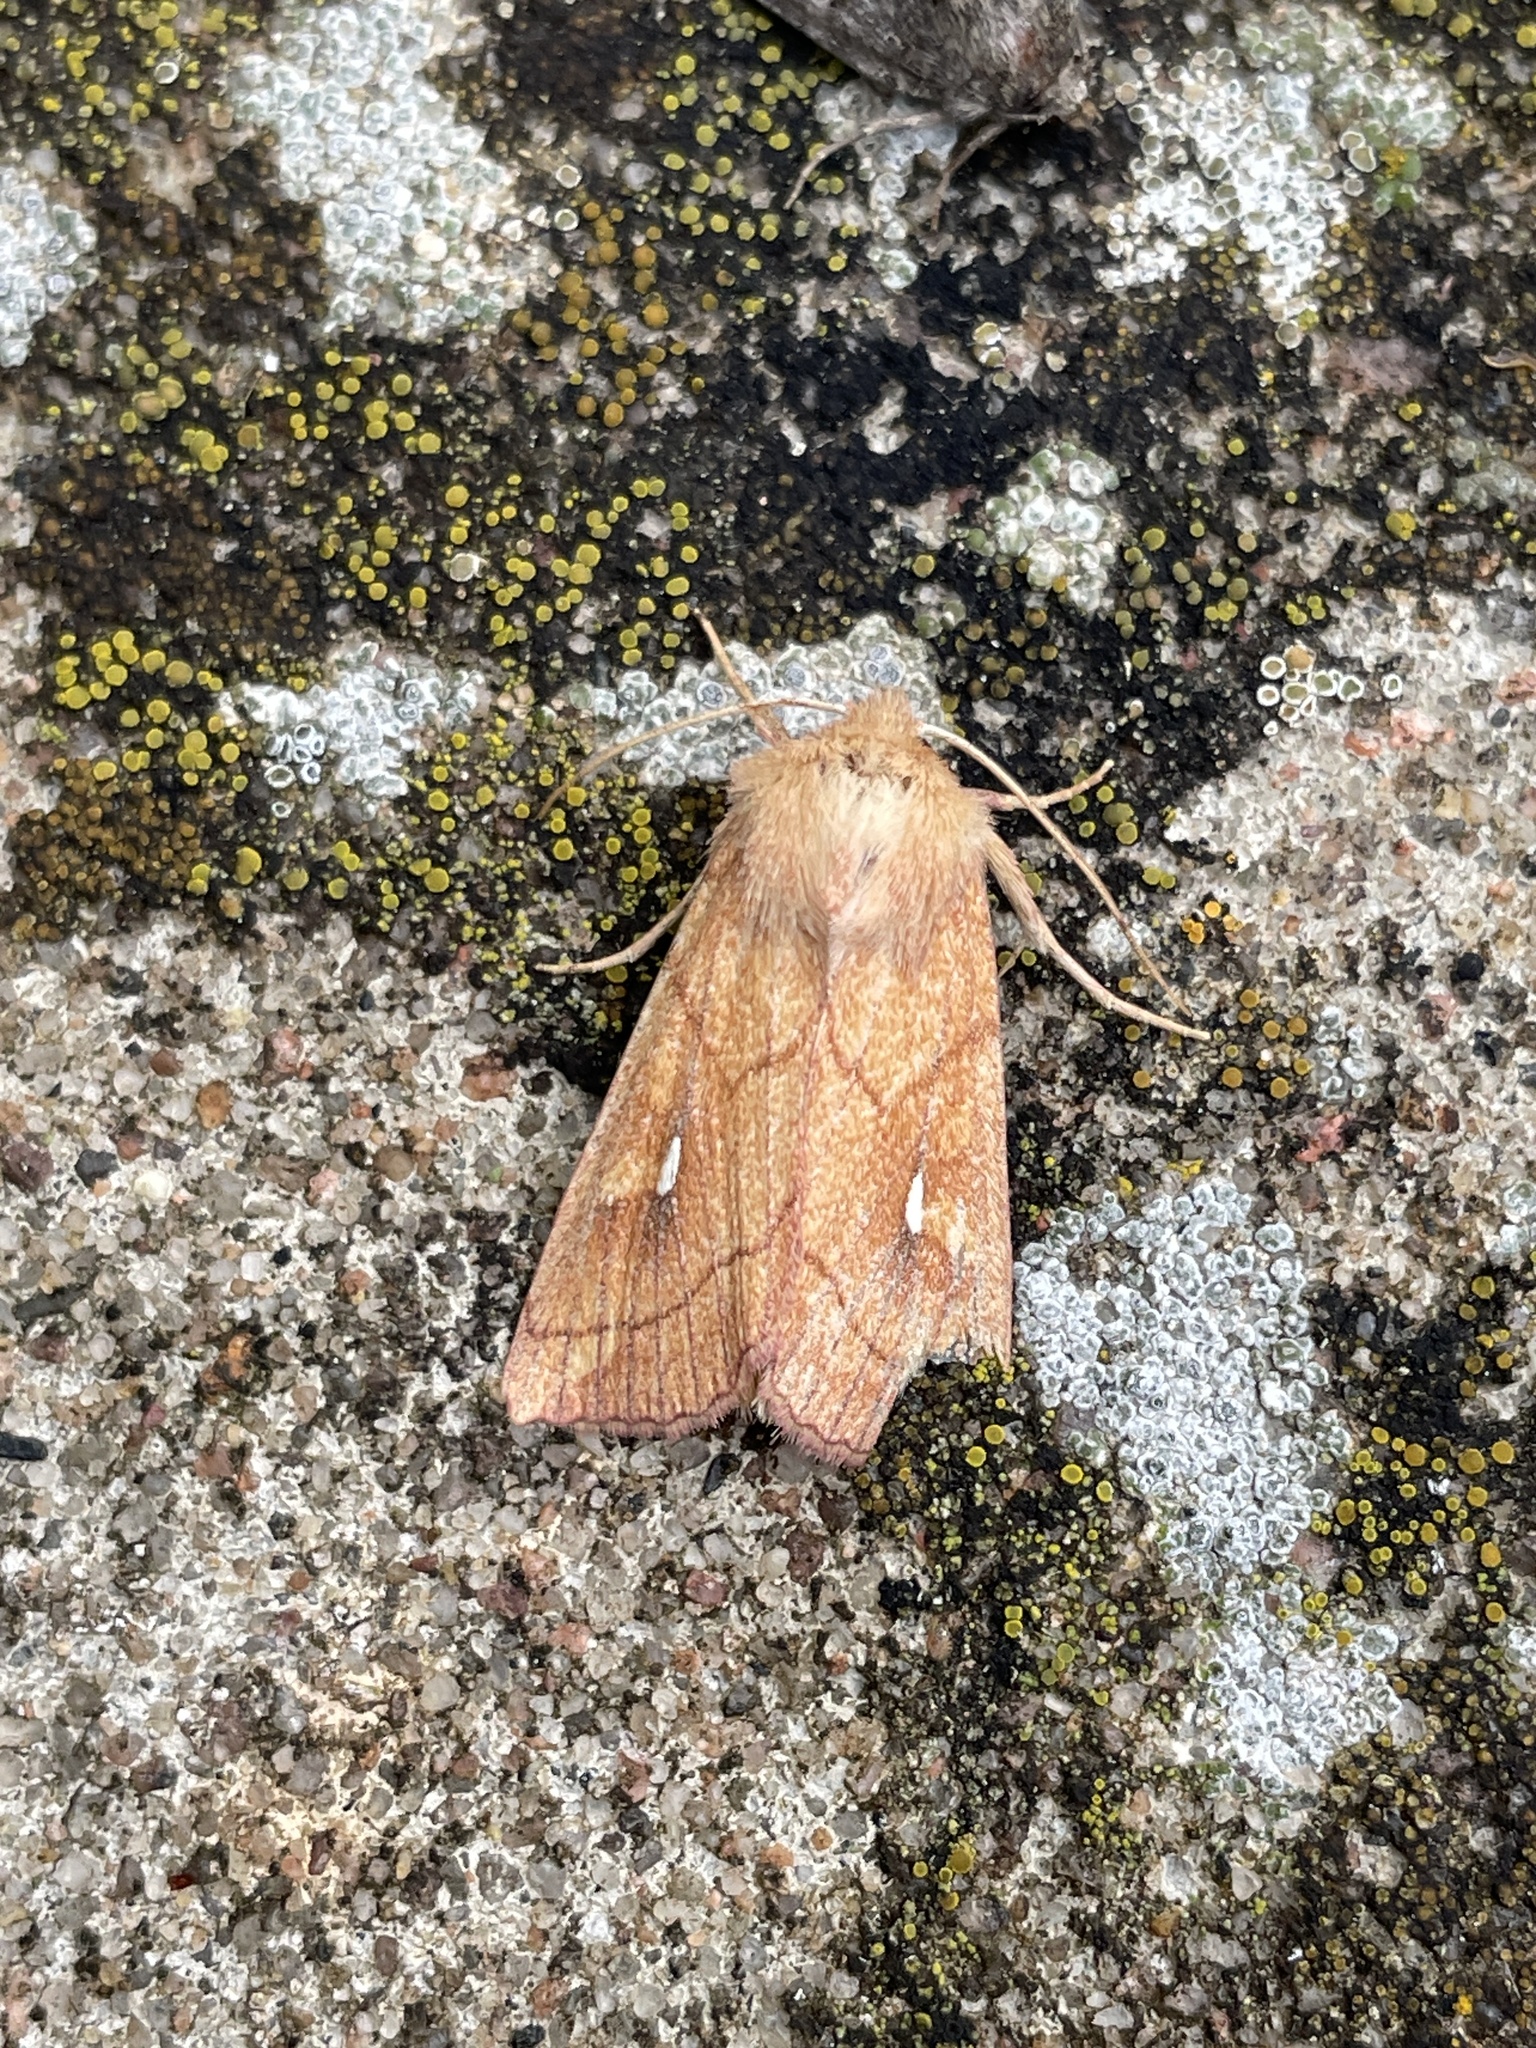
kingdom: Animalia
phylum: Arthropoda
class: Insecta
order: Lepidoptera
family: Noctuidae
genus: Mythimna
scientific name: Mythimna conigera
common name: Brown-line bright-eye
